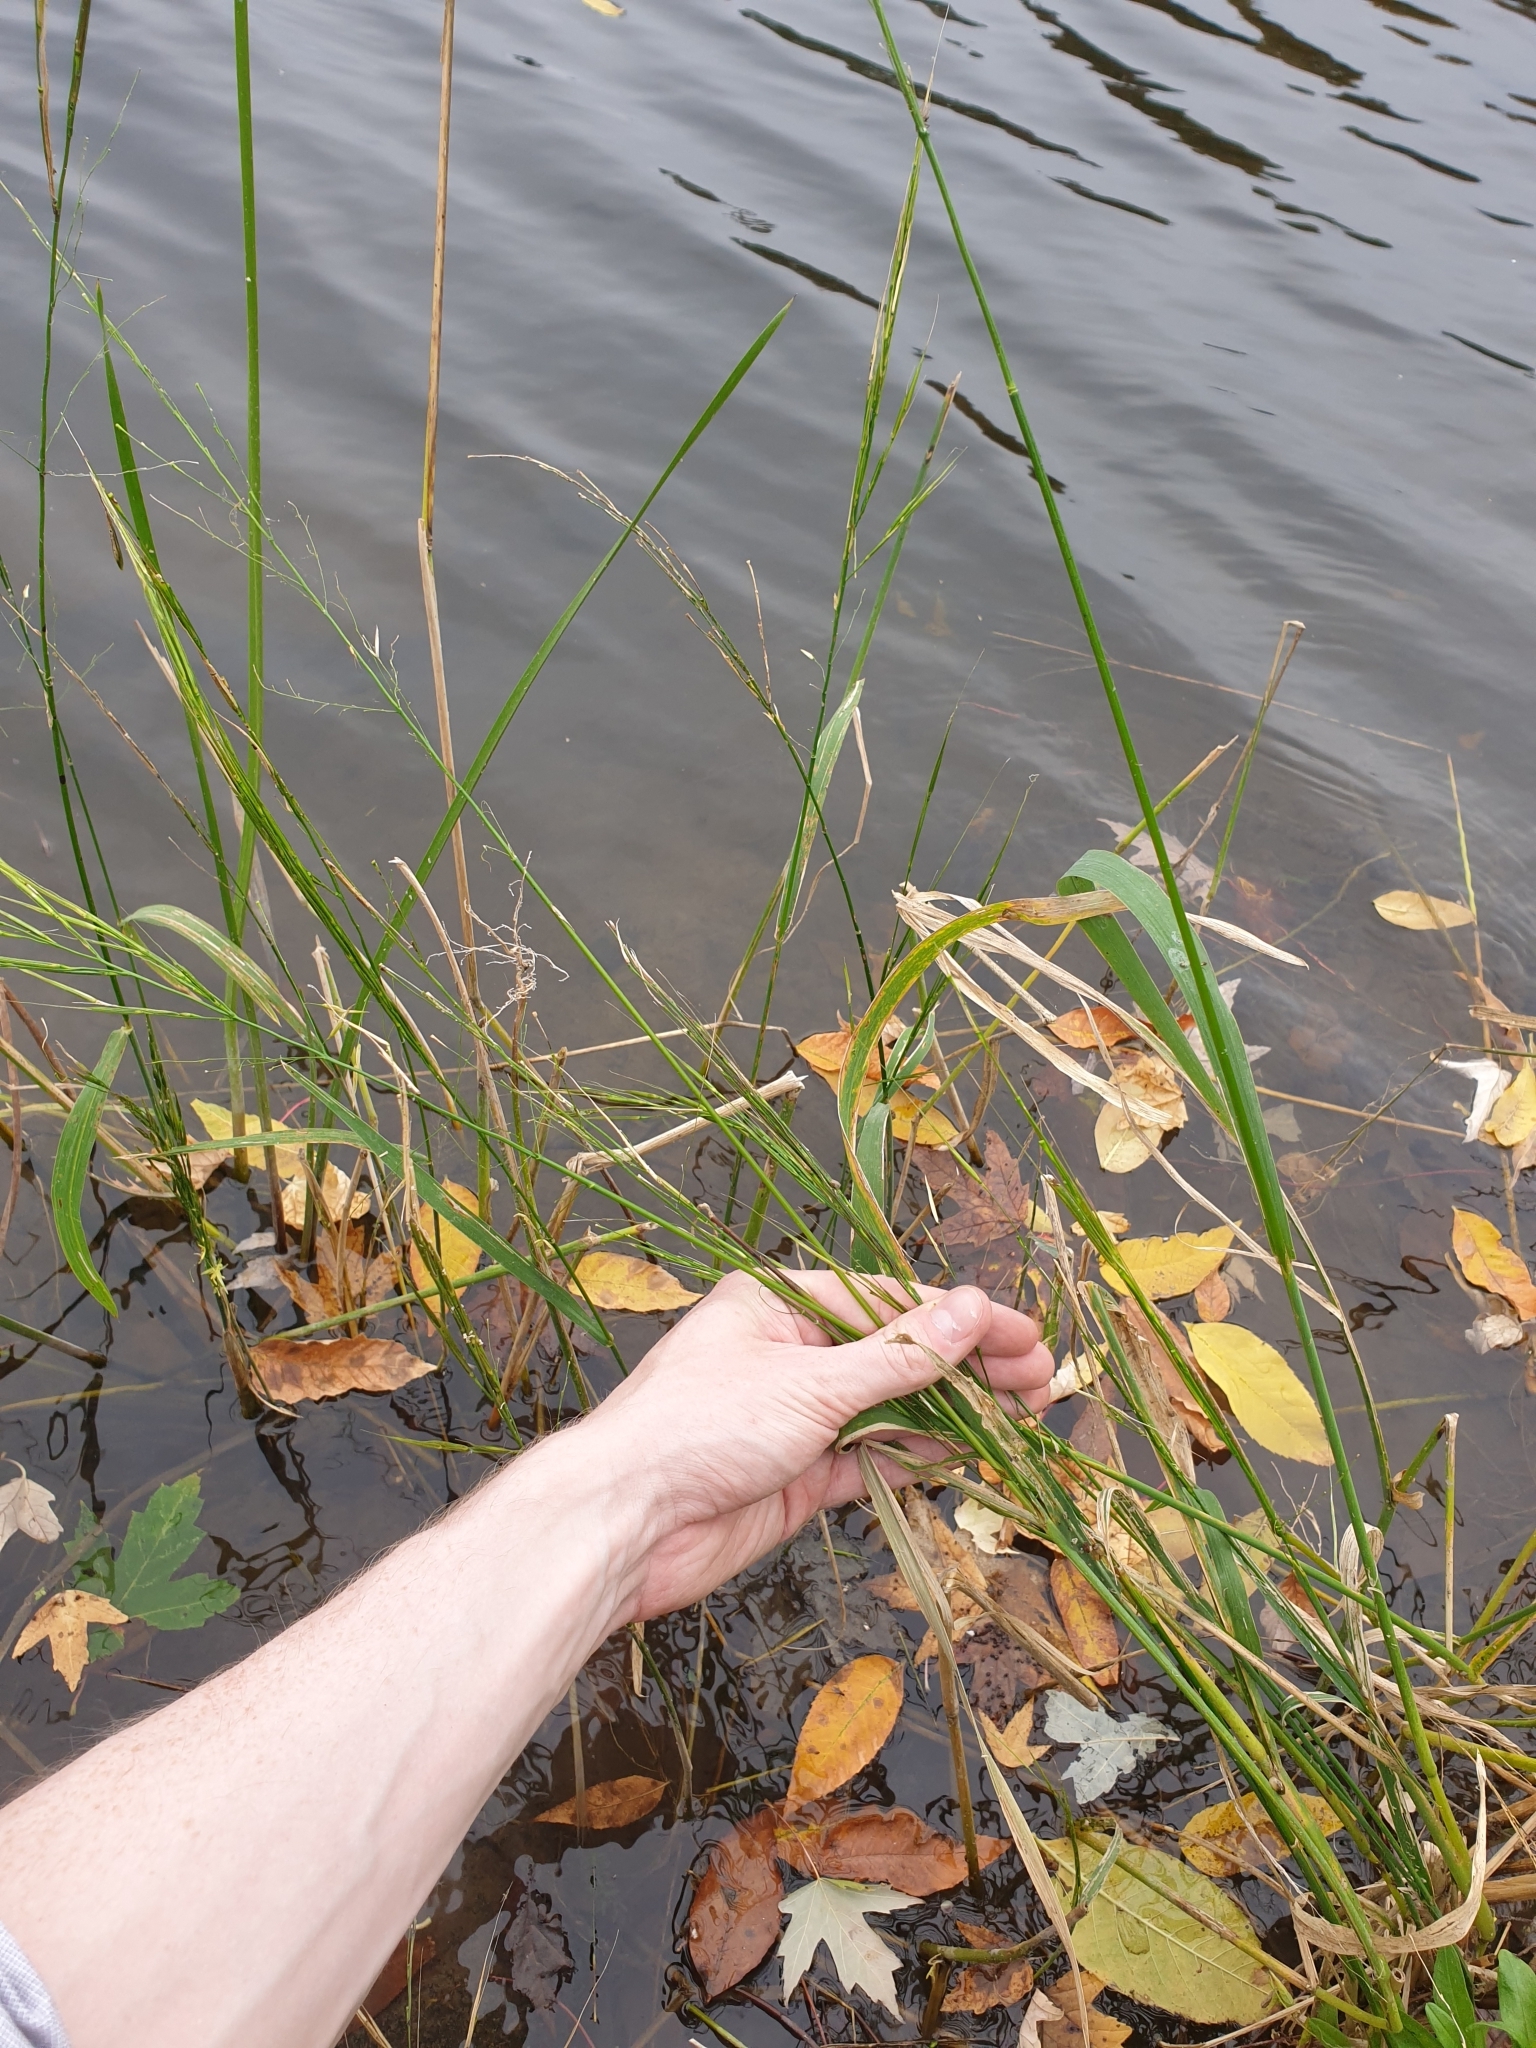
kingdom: Plantae
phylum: Tracheophyta
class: Liliopsida
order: Poales
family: Poaceae
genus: Zizania
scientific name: Zizania aquatica
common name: Annual wildrice
